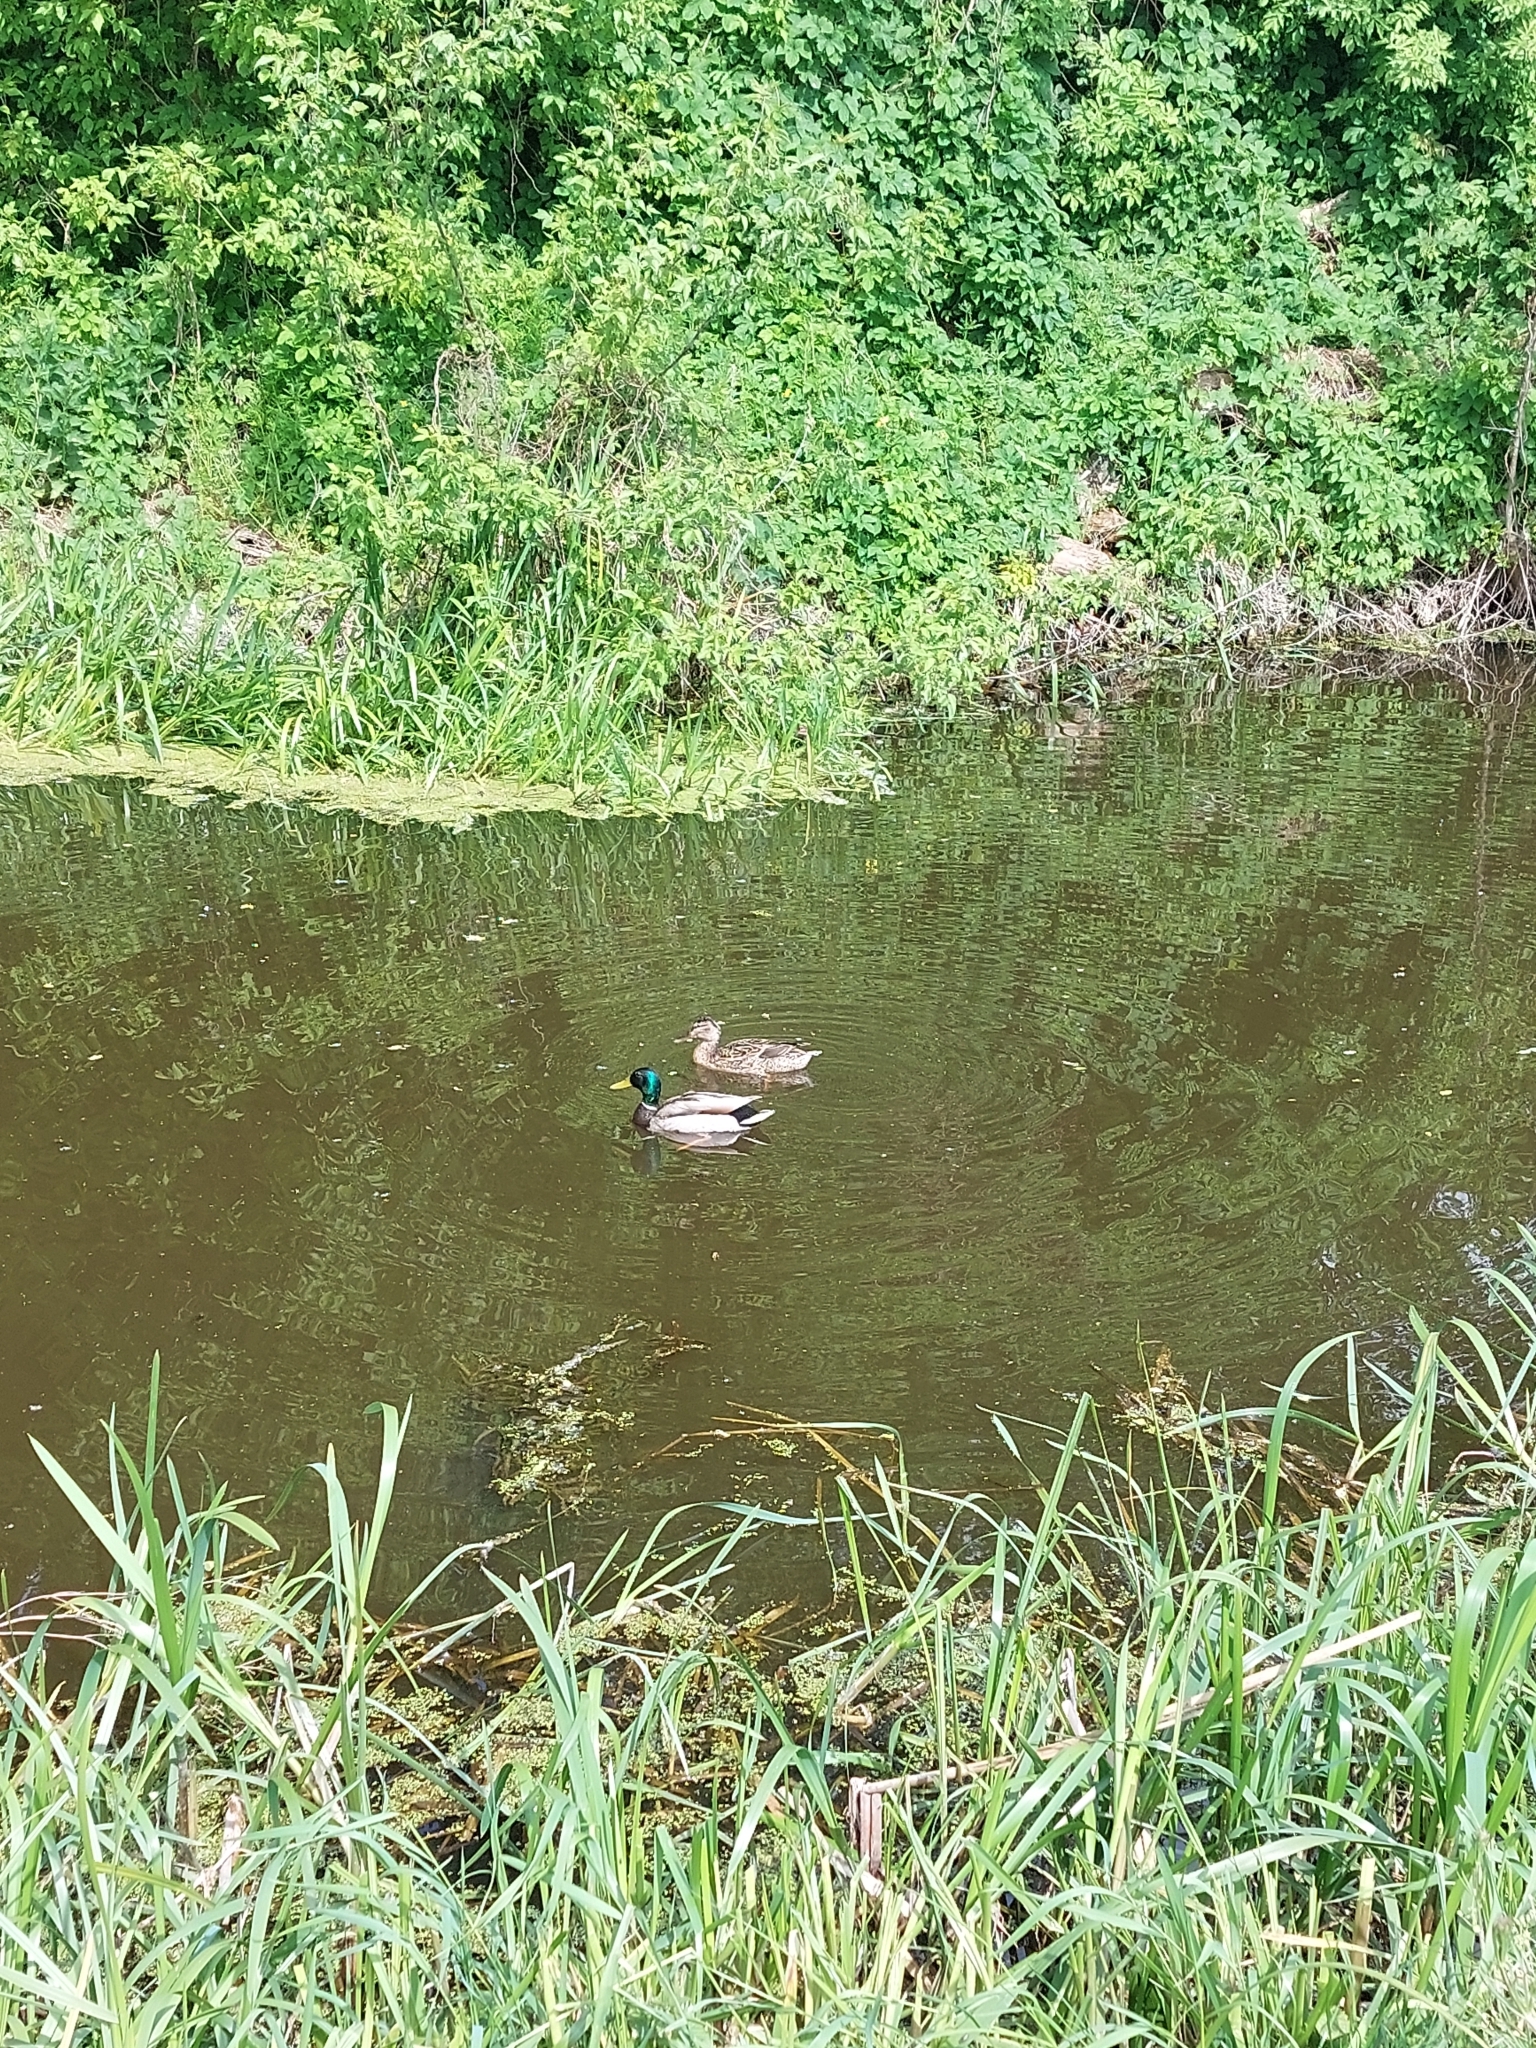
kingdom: Animalia
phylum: Chordata
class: Aves
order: Anseriformes
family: Anatidae
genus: Anas
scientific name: Anas platyrhynchos
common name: Mallard
